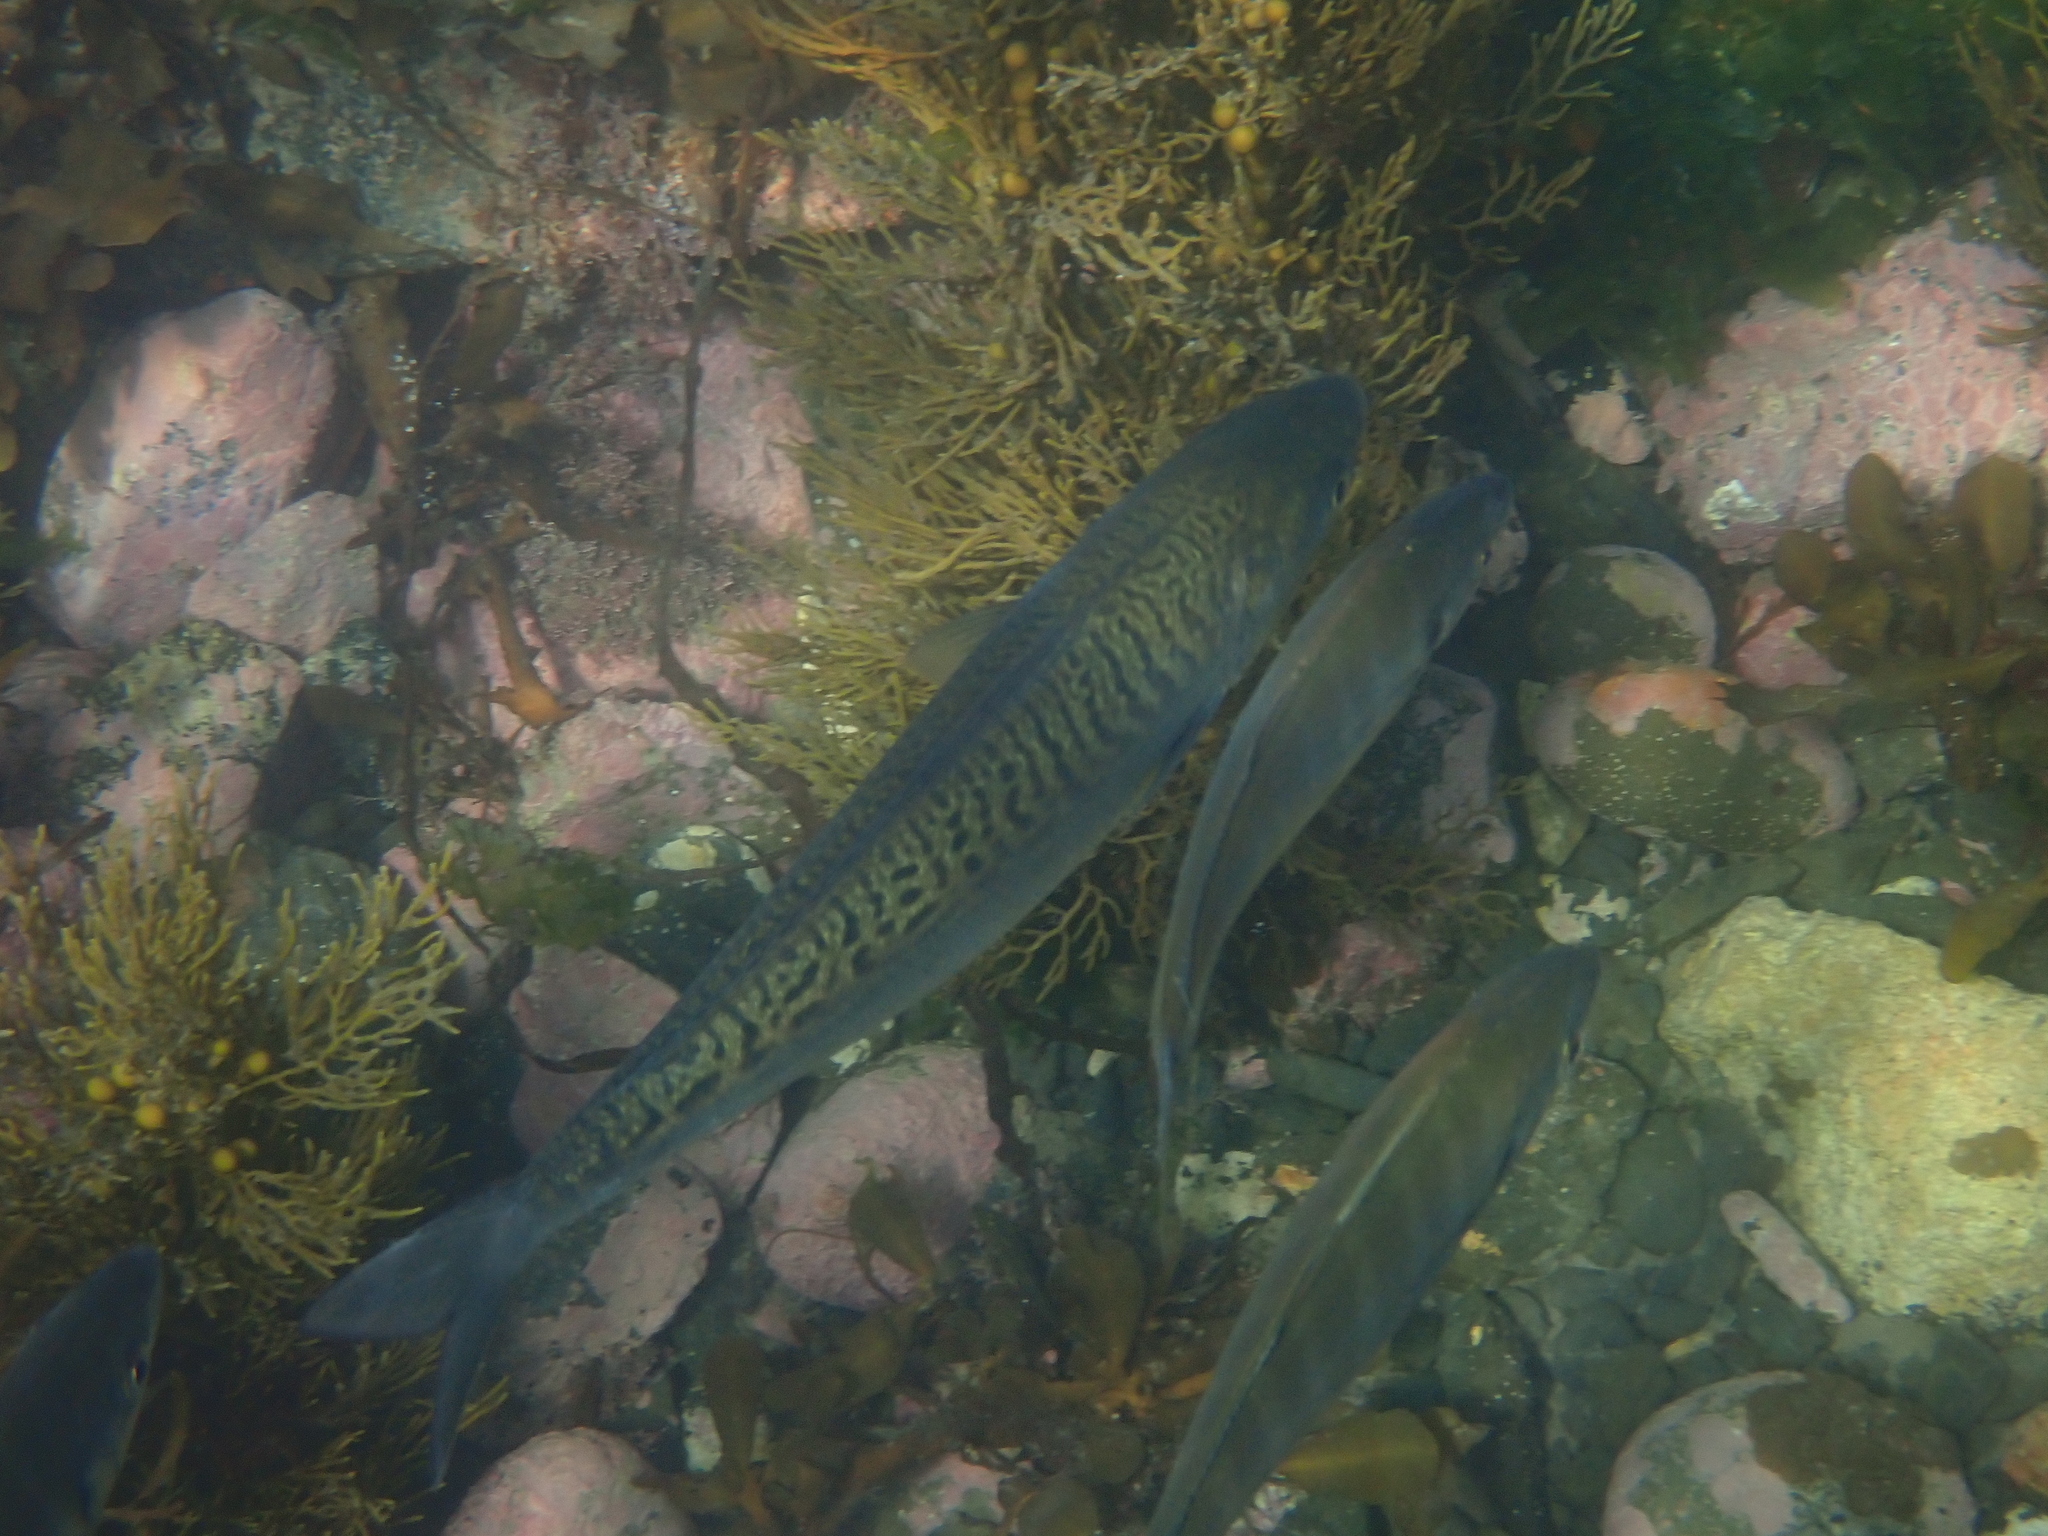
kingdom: Animalia
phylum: Chordata
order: Perciformes
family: Arripidae
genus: Arripis
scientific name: Arripis trutta
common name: Kahawai
